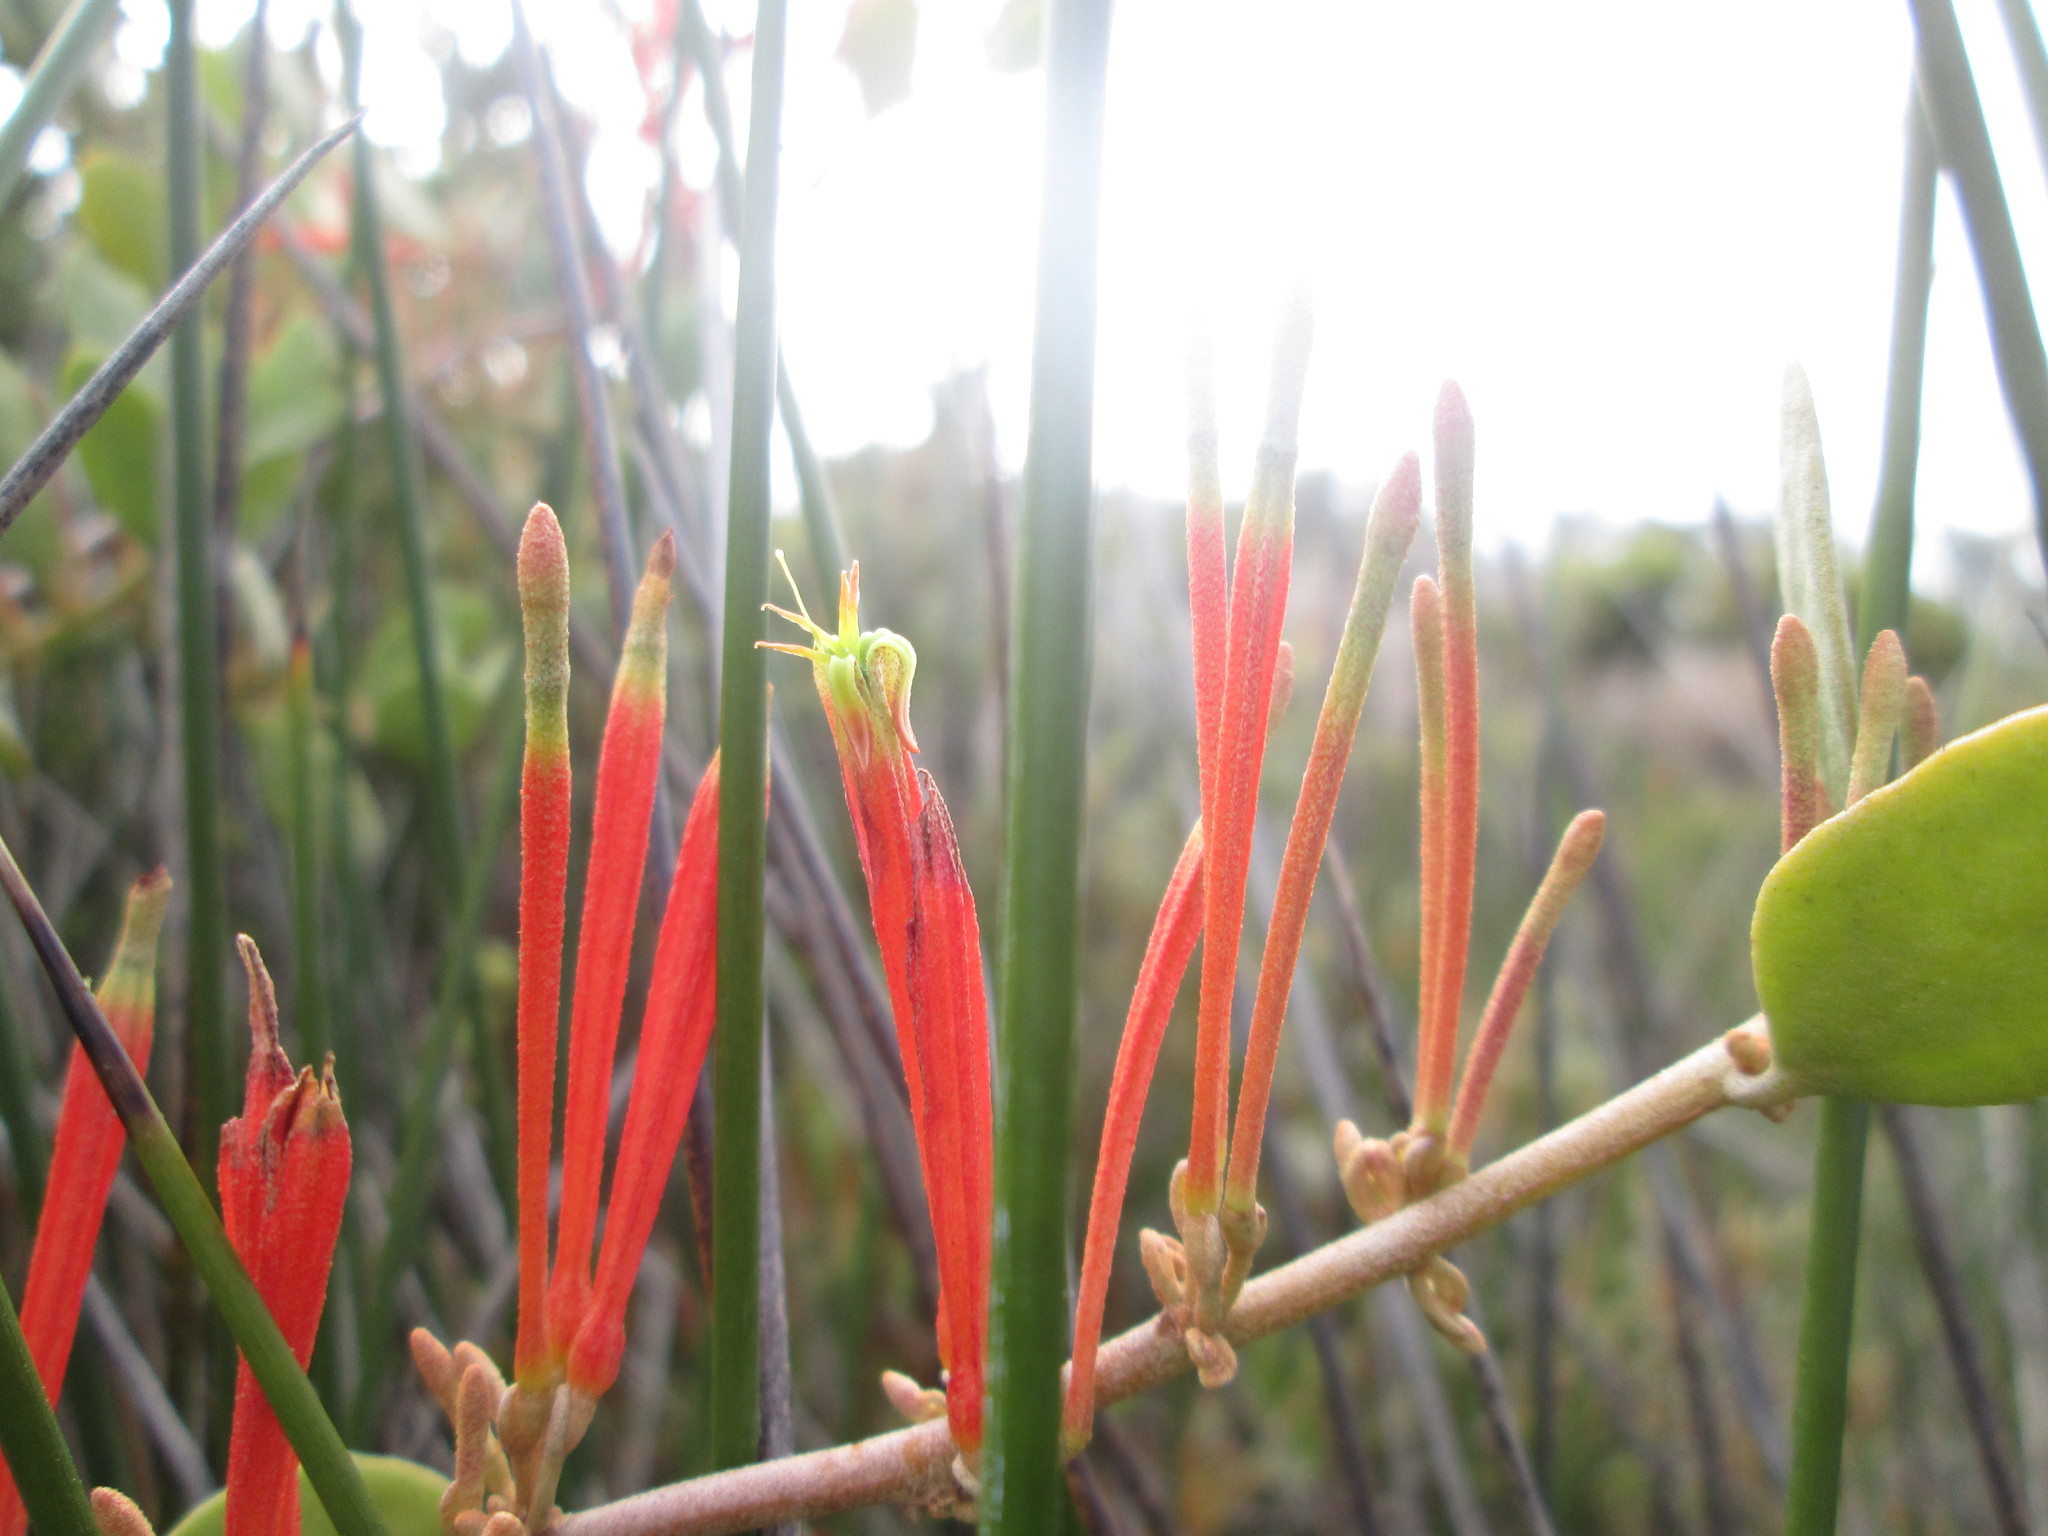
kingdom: Plantae
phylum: Tracheophyta
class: Magnoliopsida
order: Santalales
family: Loranthaceae
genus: Septulina
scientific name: Septulina glauca
